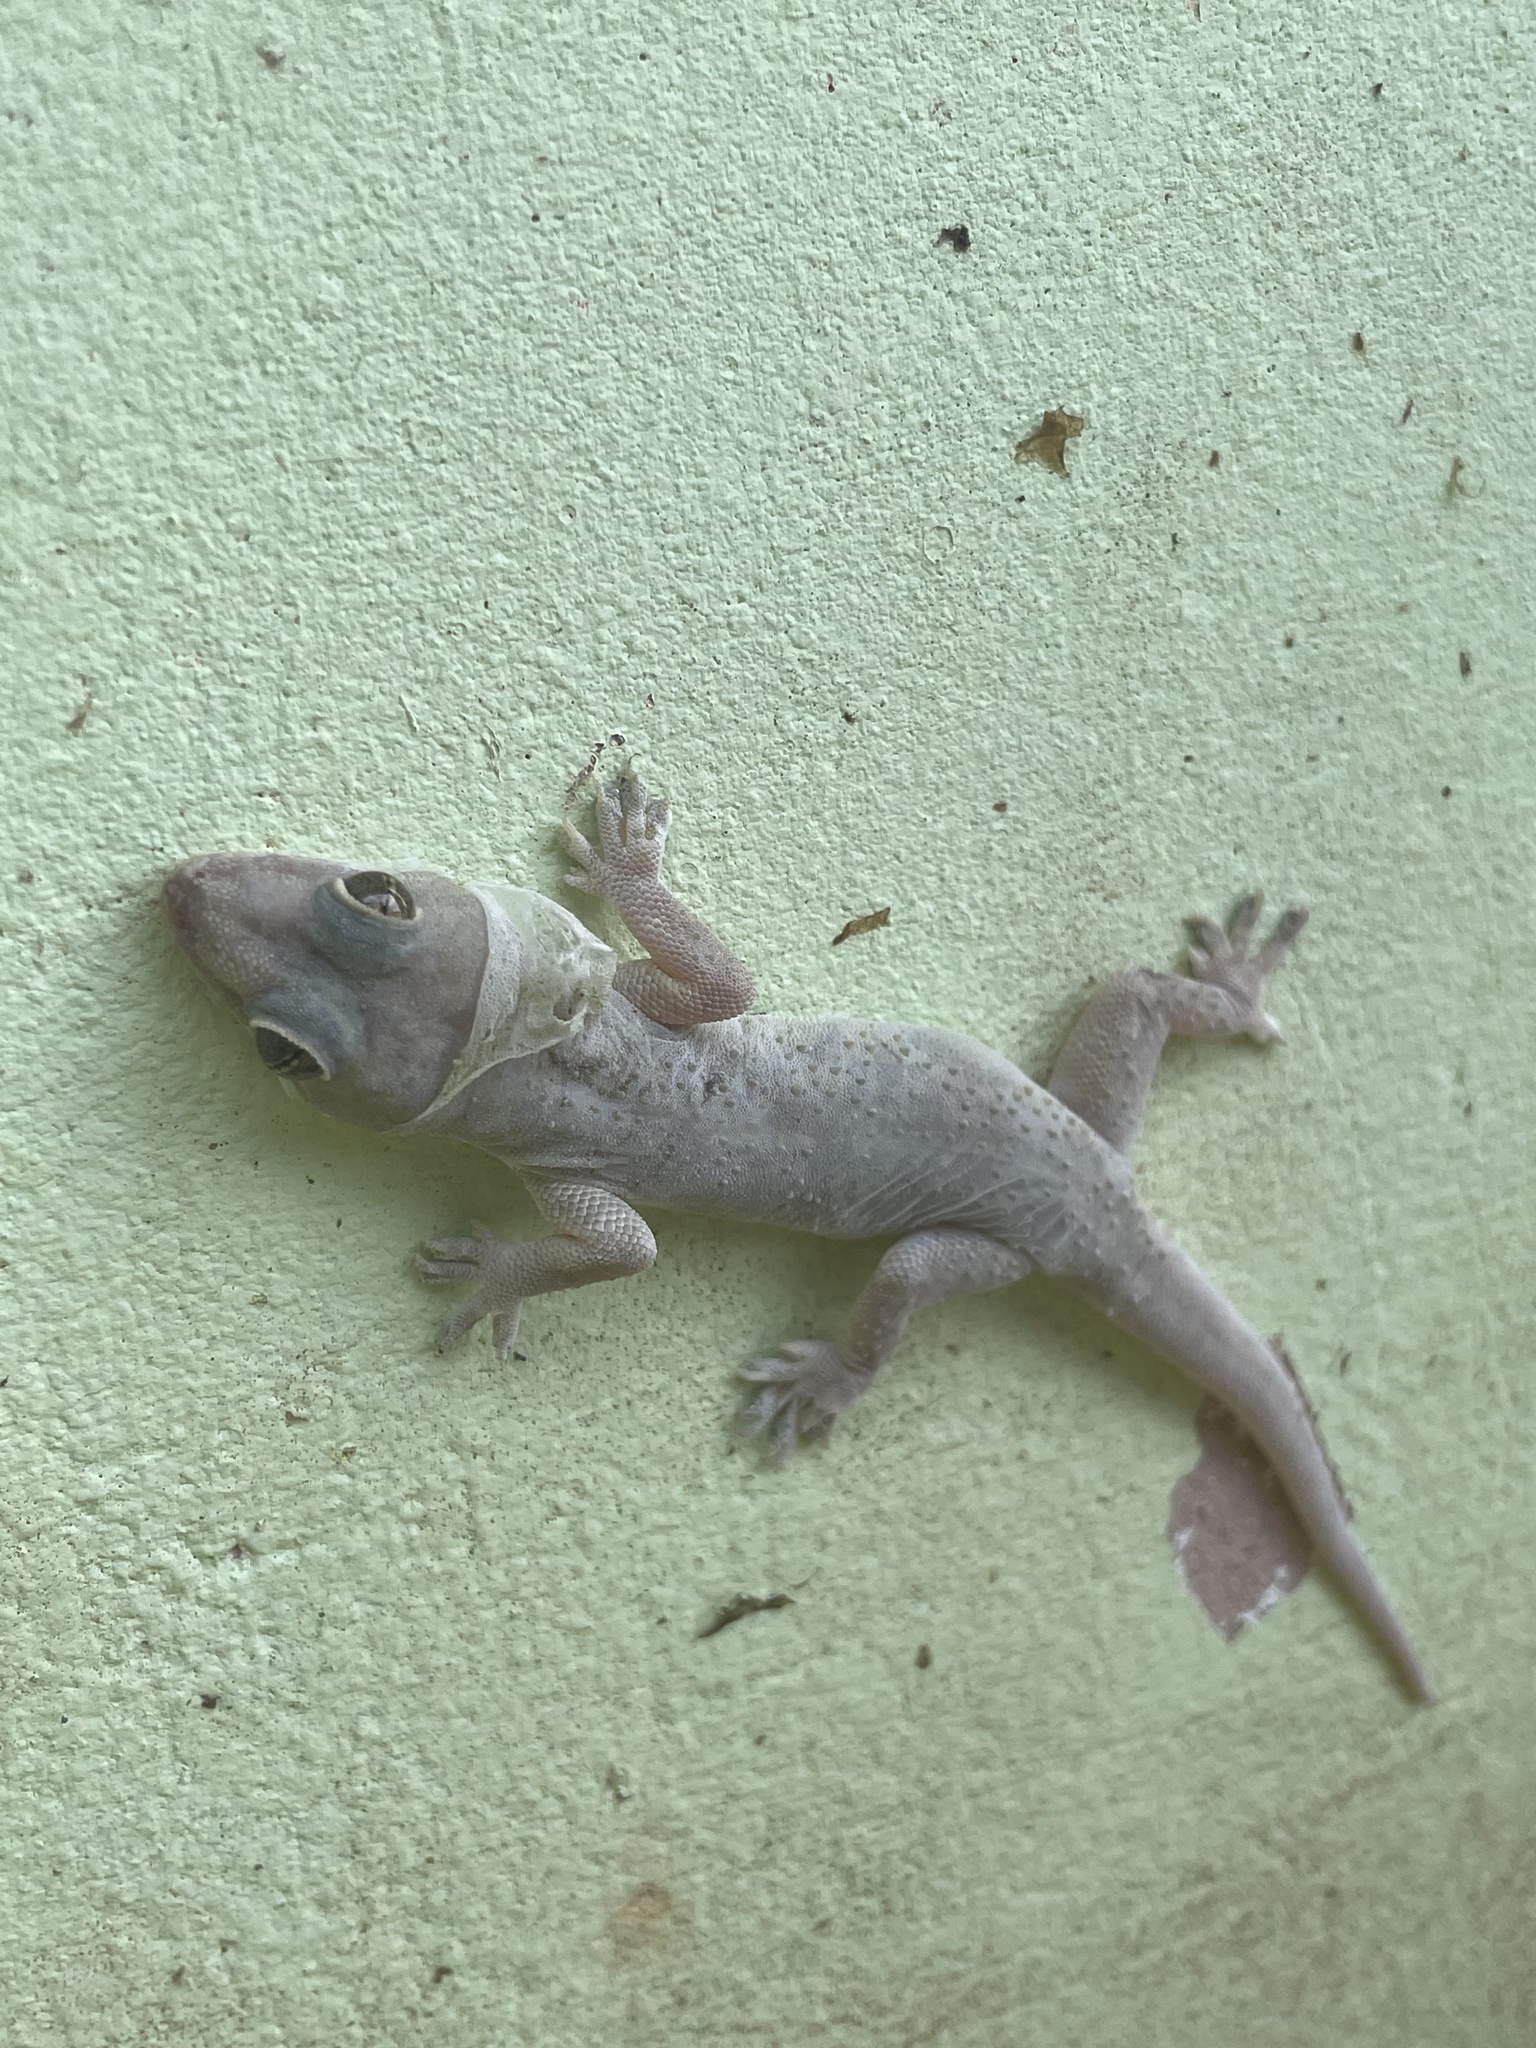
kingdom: Animalia
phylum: Chordata
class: Squamata
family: Gekkonidae
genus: Hemidactylus
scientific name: Hemidactylus mabouia
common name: House gecko
